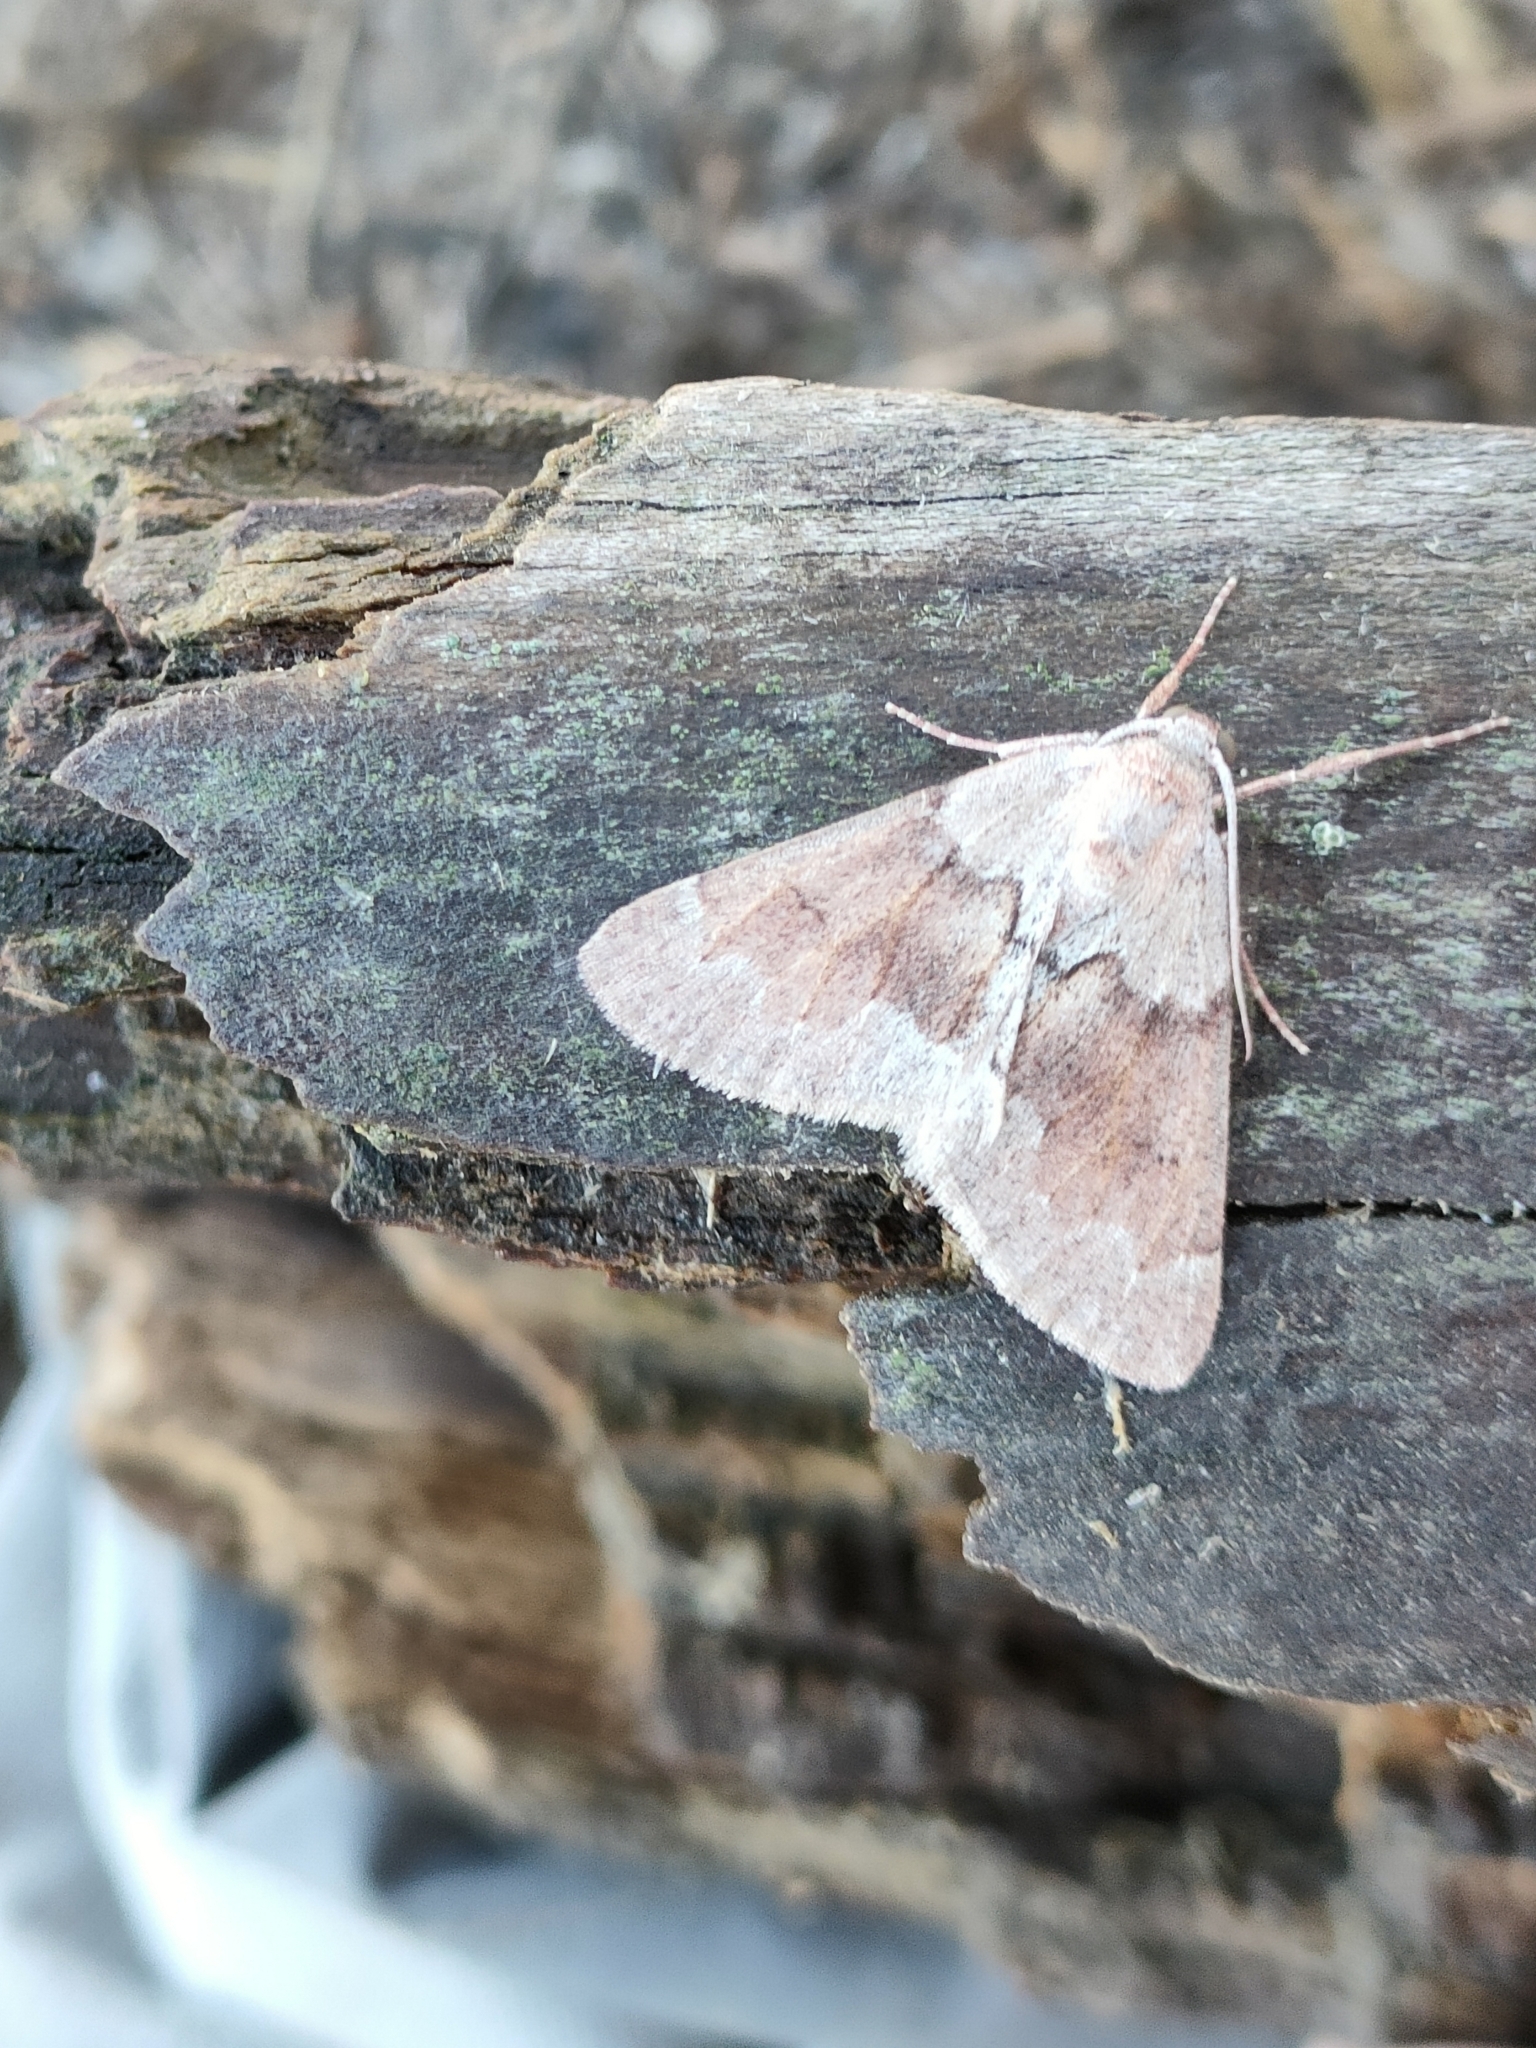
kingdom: Animalia
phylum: Arthropoda
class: Insecta
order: Lepidoptera
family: Geometridae
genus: Adalbertia
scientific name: Adalbertia castiliaria
